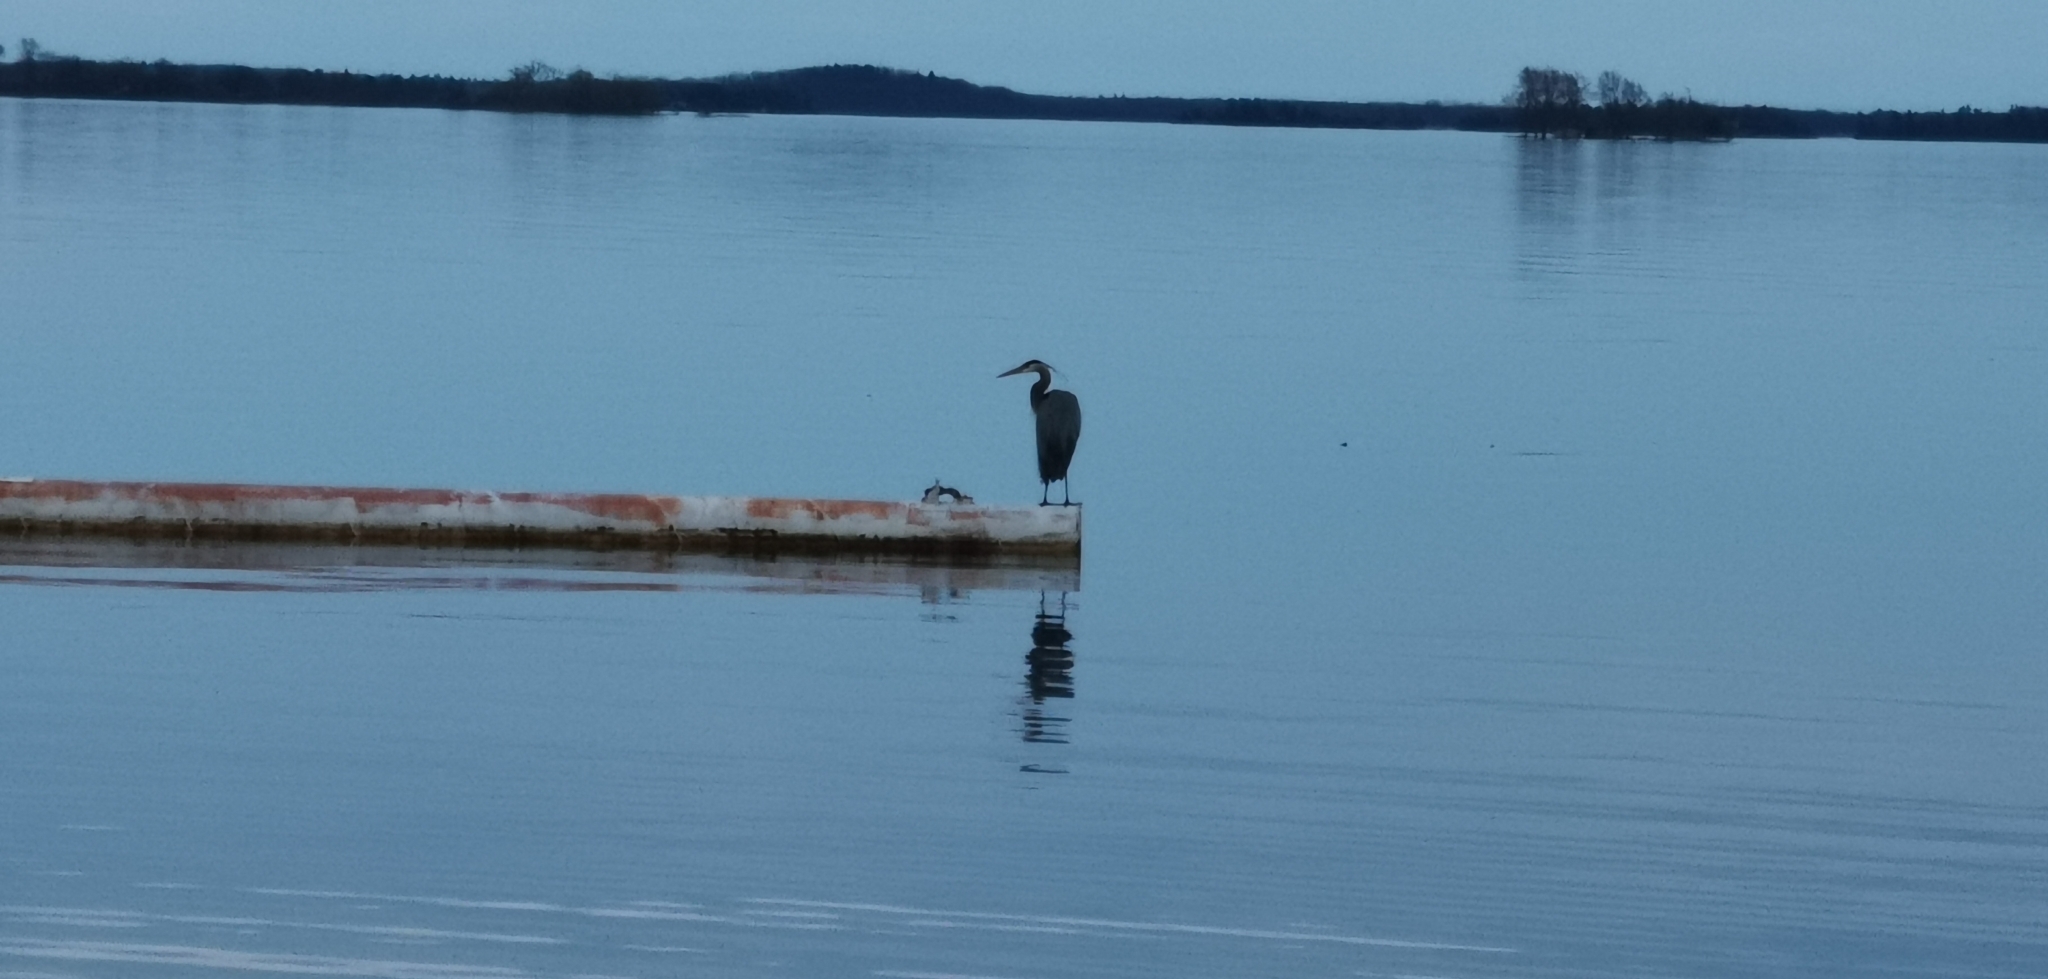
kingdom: Animalia
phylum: Chordata
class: Aves
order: Pelecaniformes
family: Ardeidae
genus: Ardea
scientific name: Ardea herodias
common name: Great blue heron
